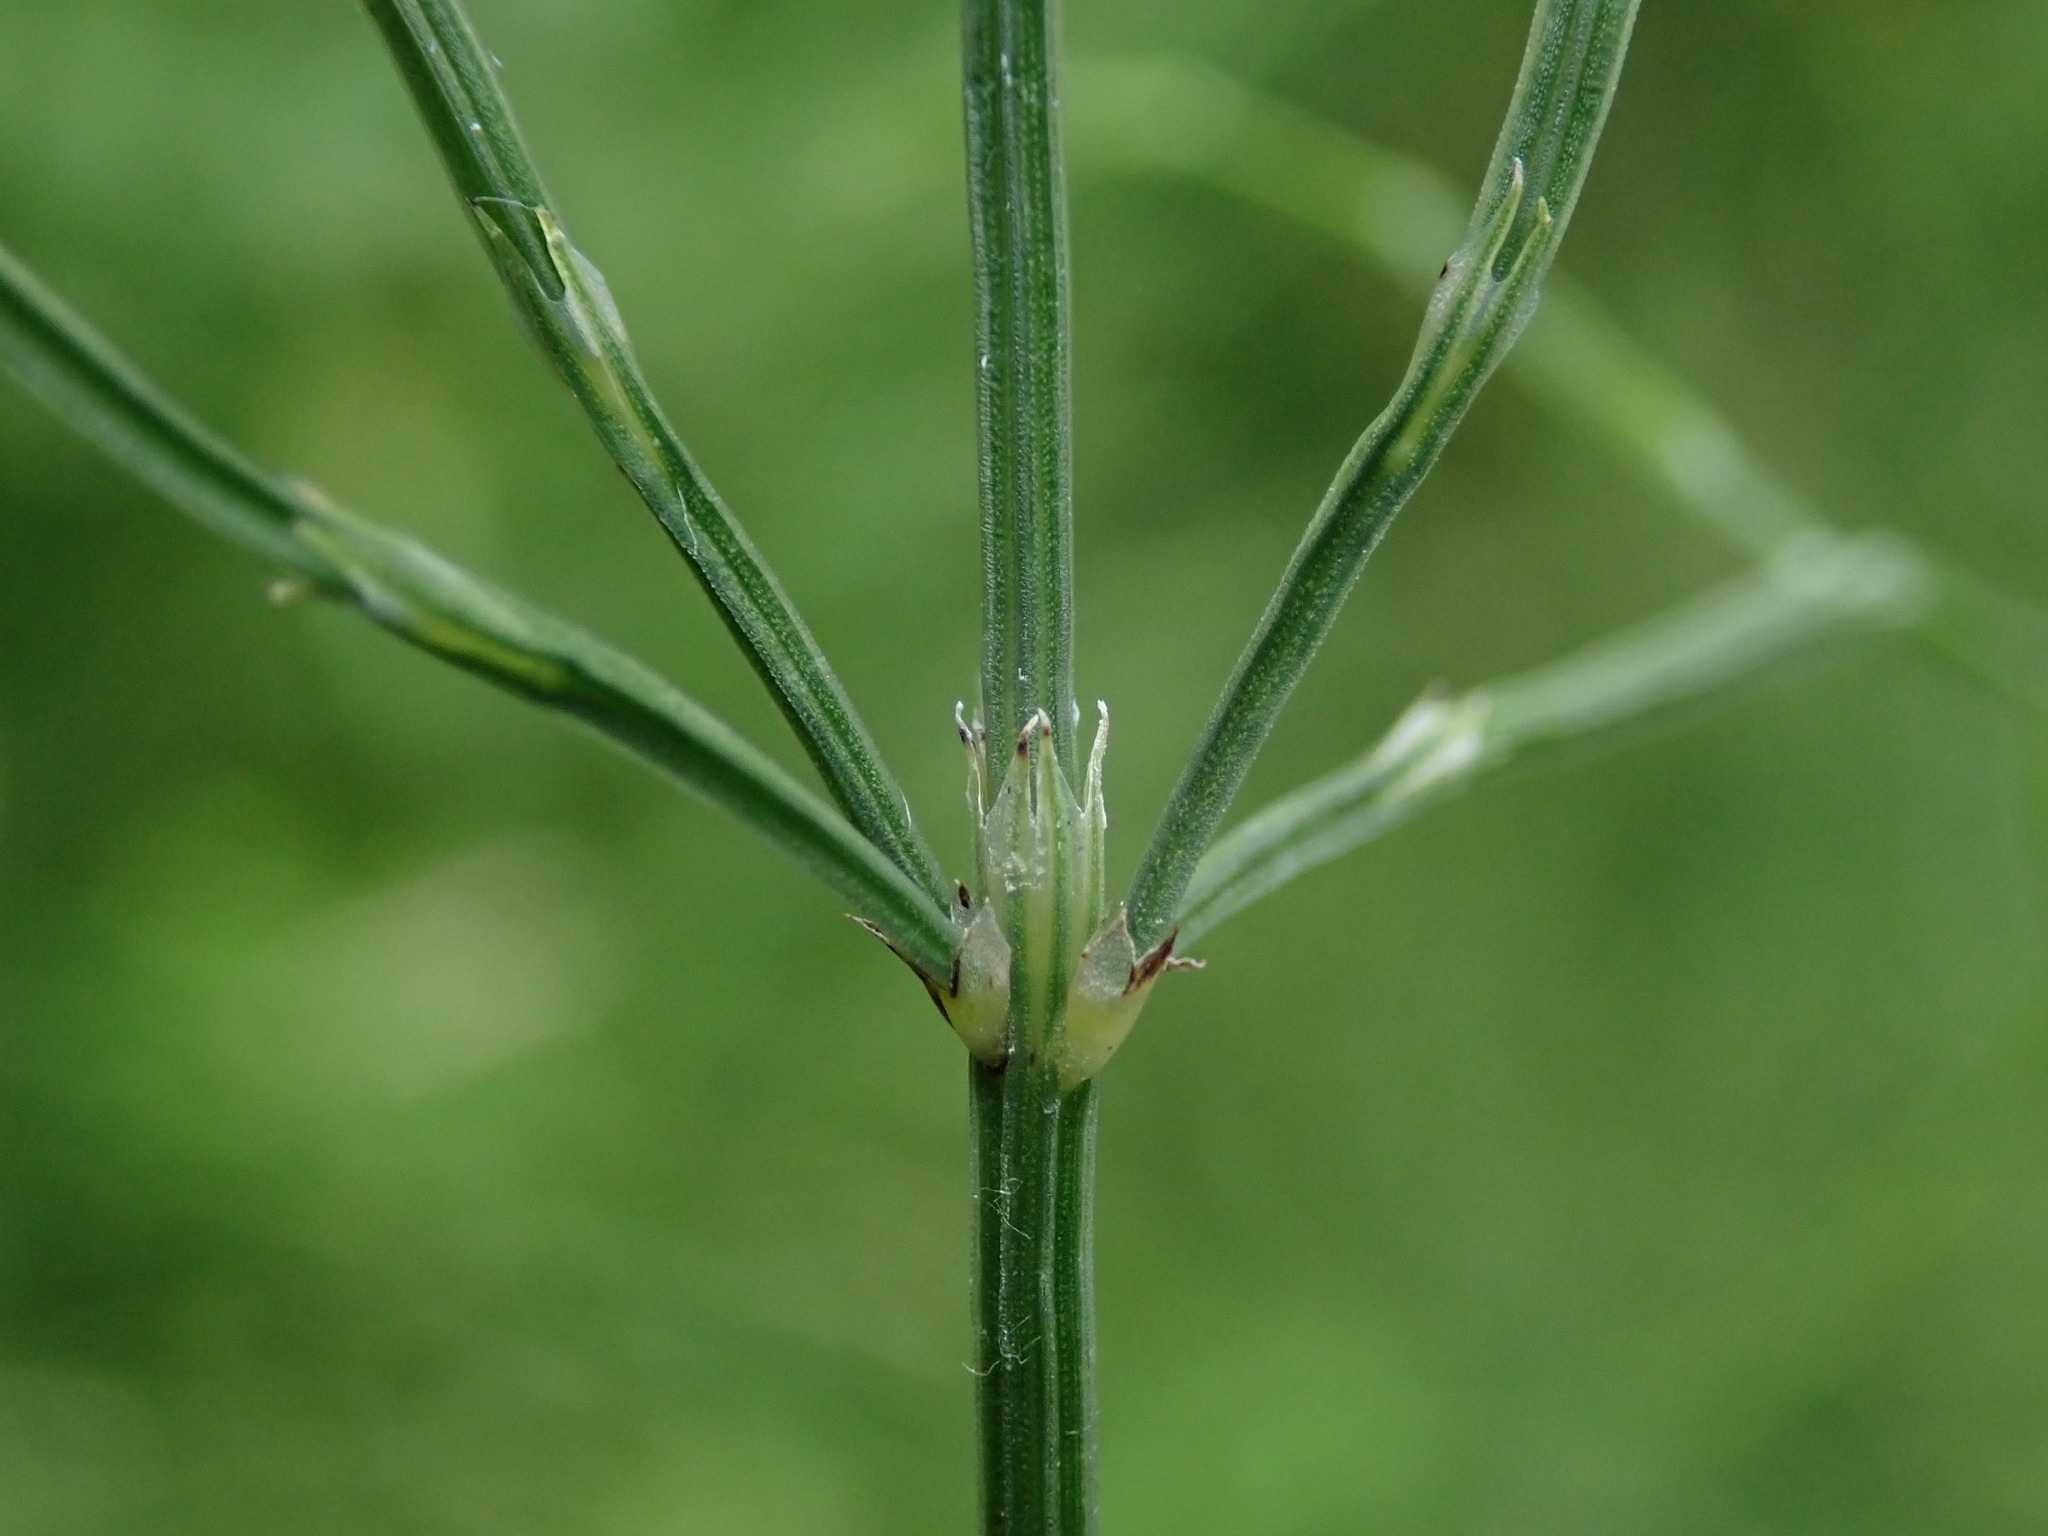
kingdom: Plantae
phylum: Tracheophyta
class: Polypodiopsida
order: Equisetales
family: Equisetaceae
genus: Equisetum
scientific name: Equisetum arvense
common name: Field horsetail
